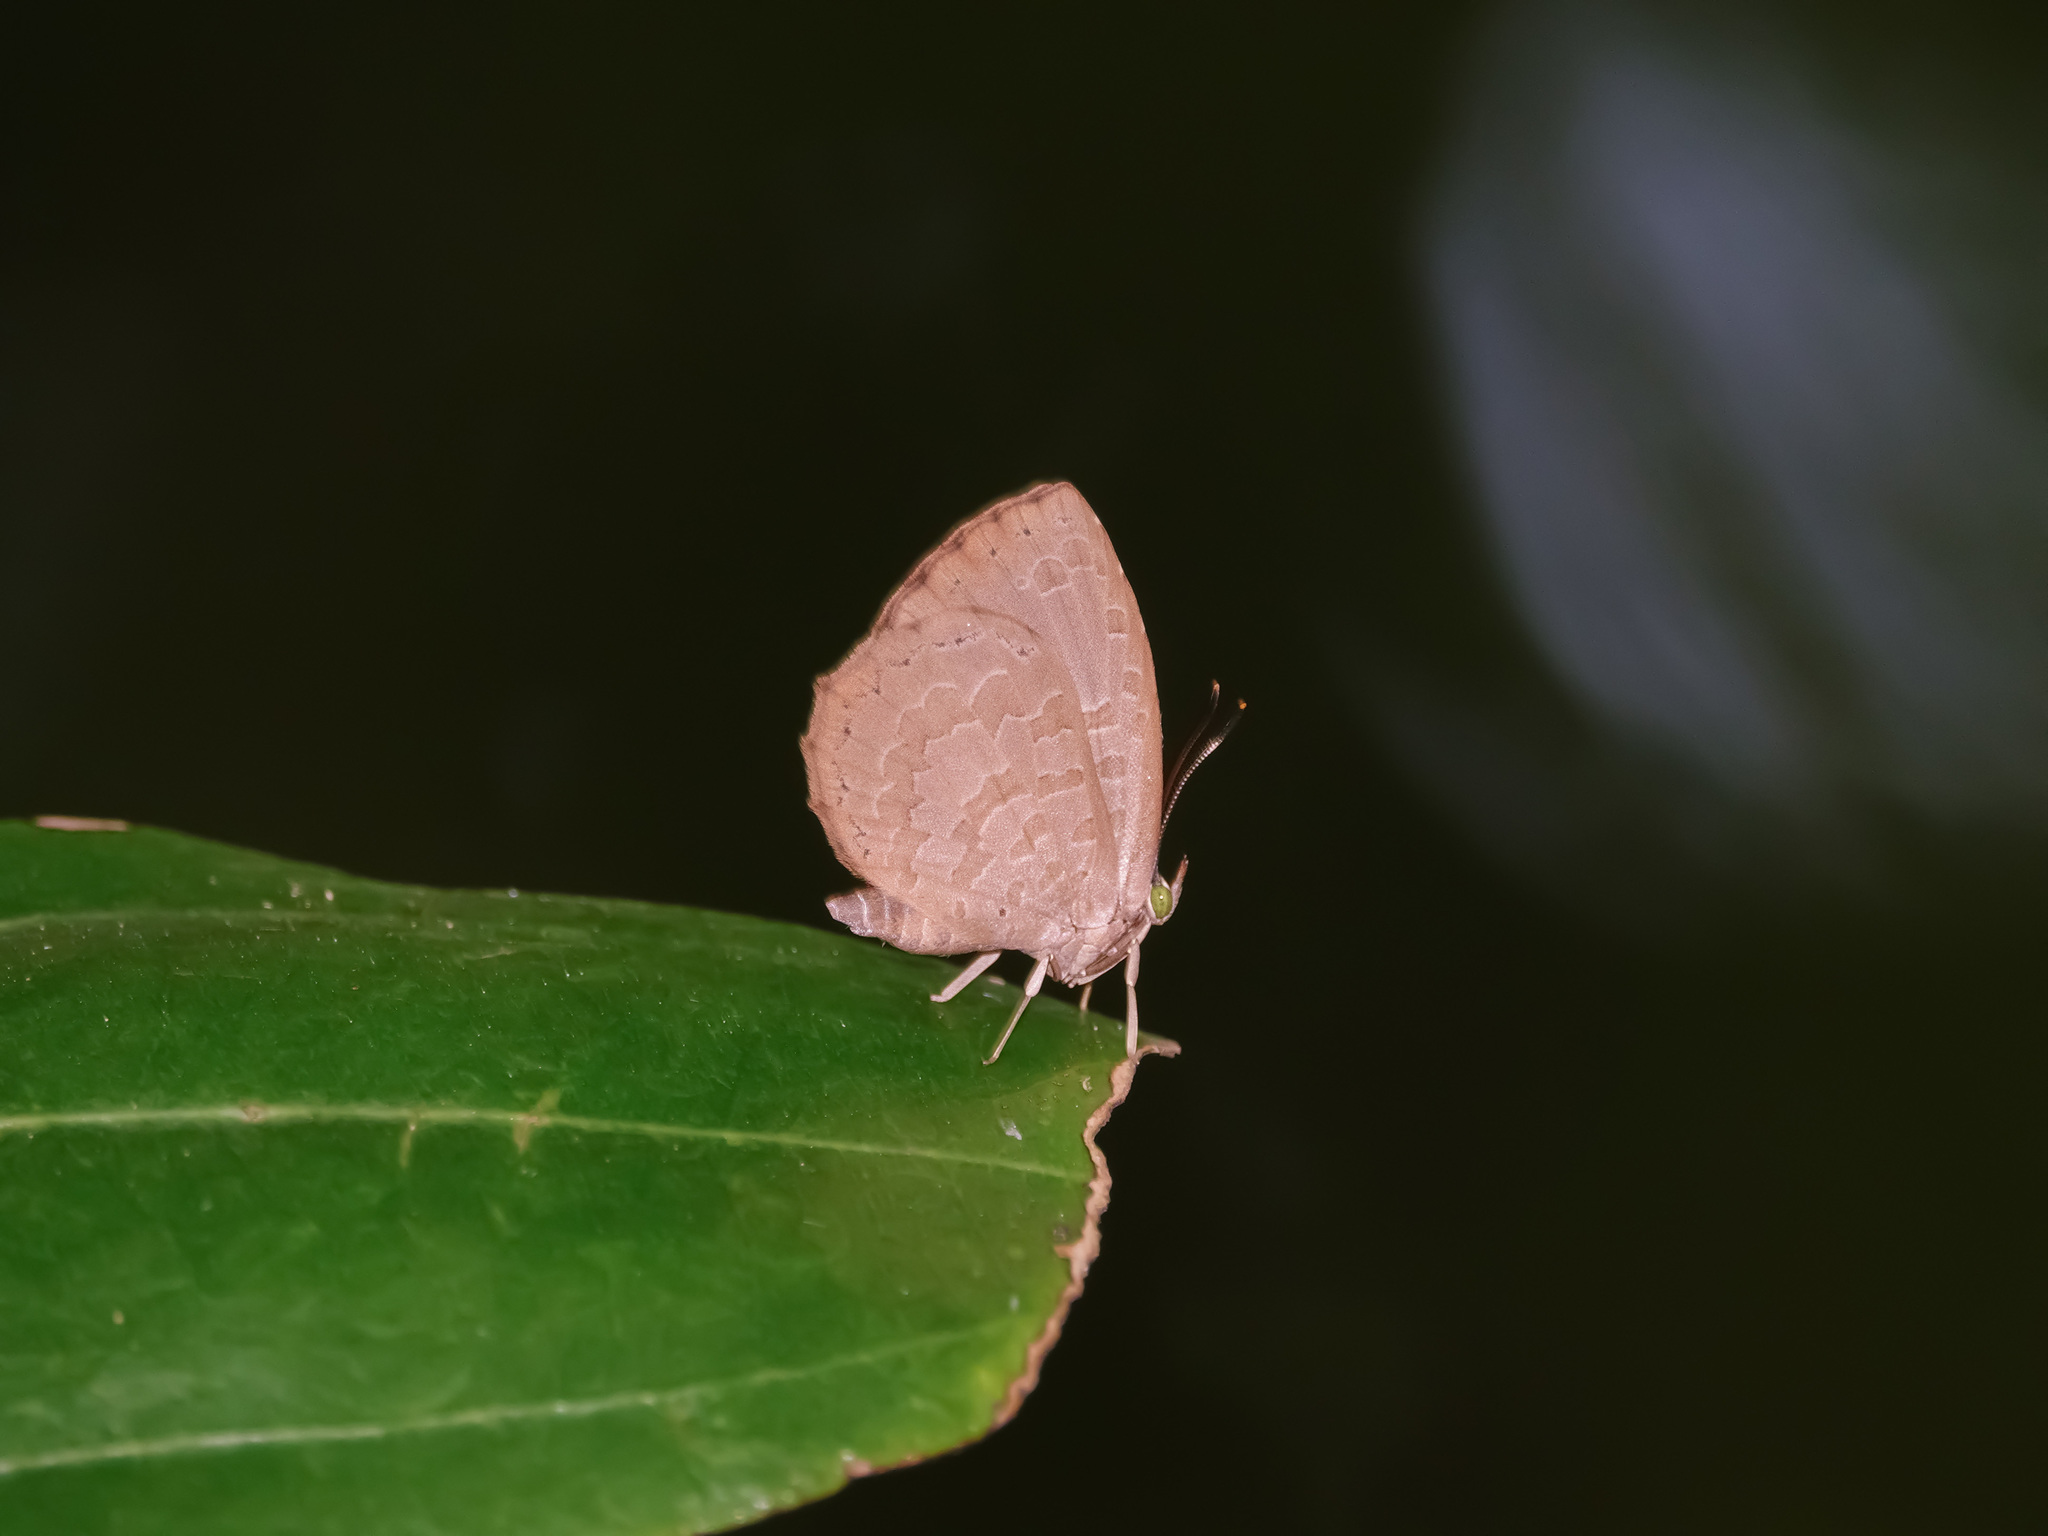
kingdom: Animalia
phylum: Arthropoda
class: Insecta
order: Lepidoptera
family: Lycaenidae
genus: Miletus
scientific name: Miletus biggsii
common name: Bigg's brownie
